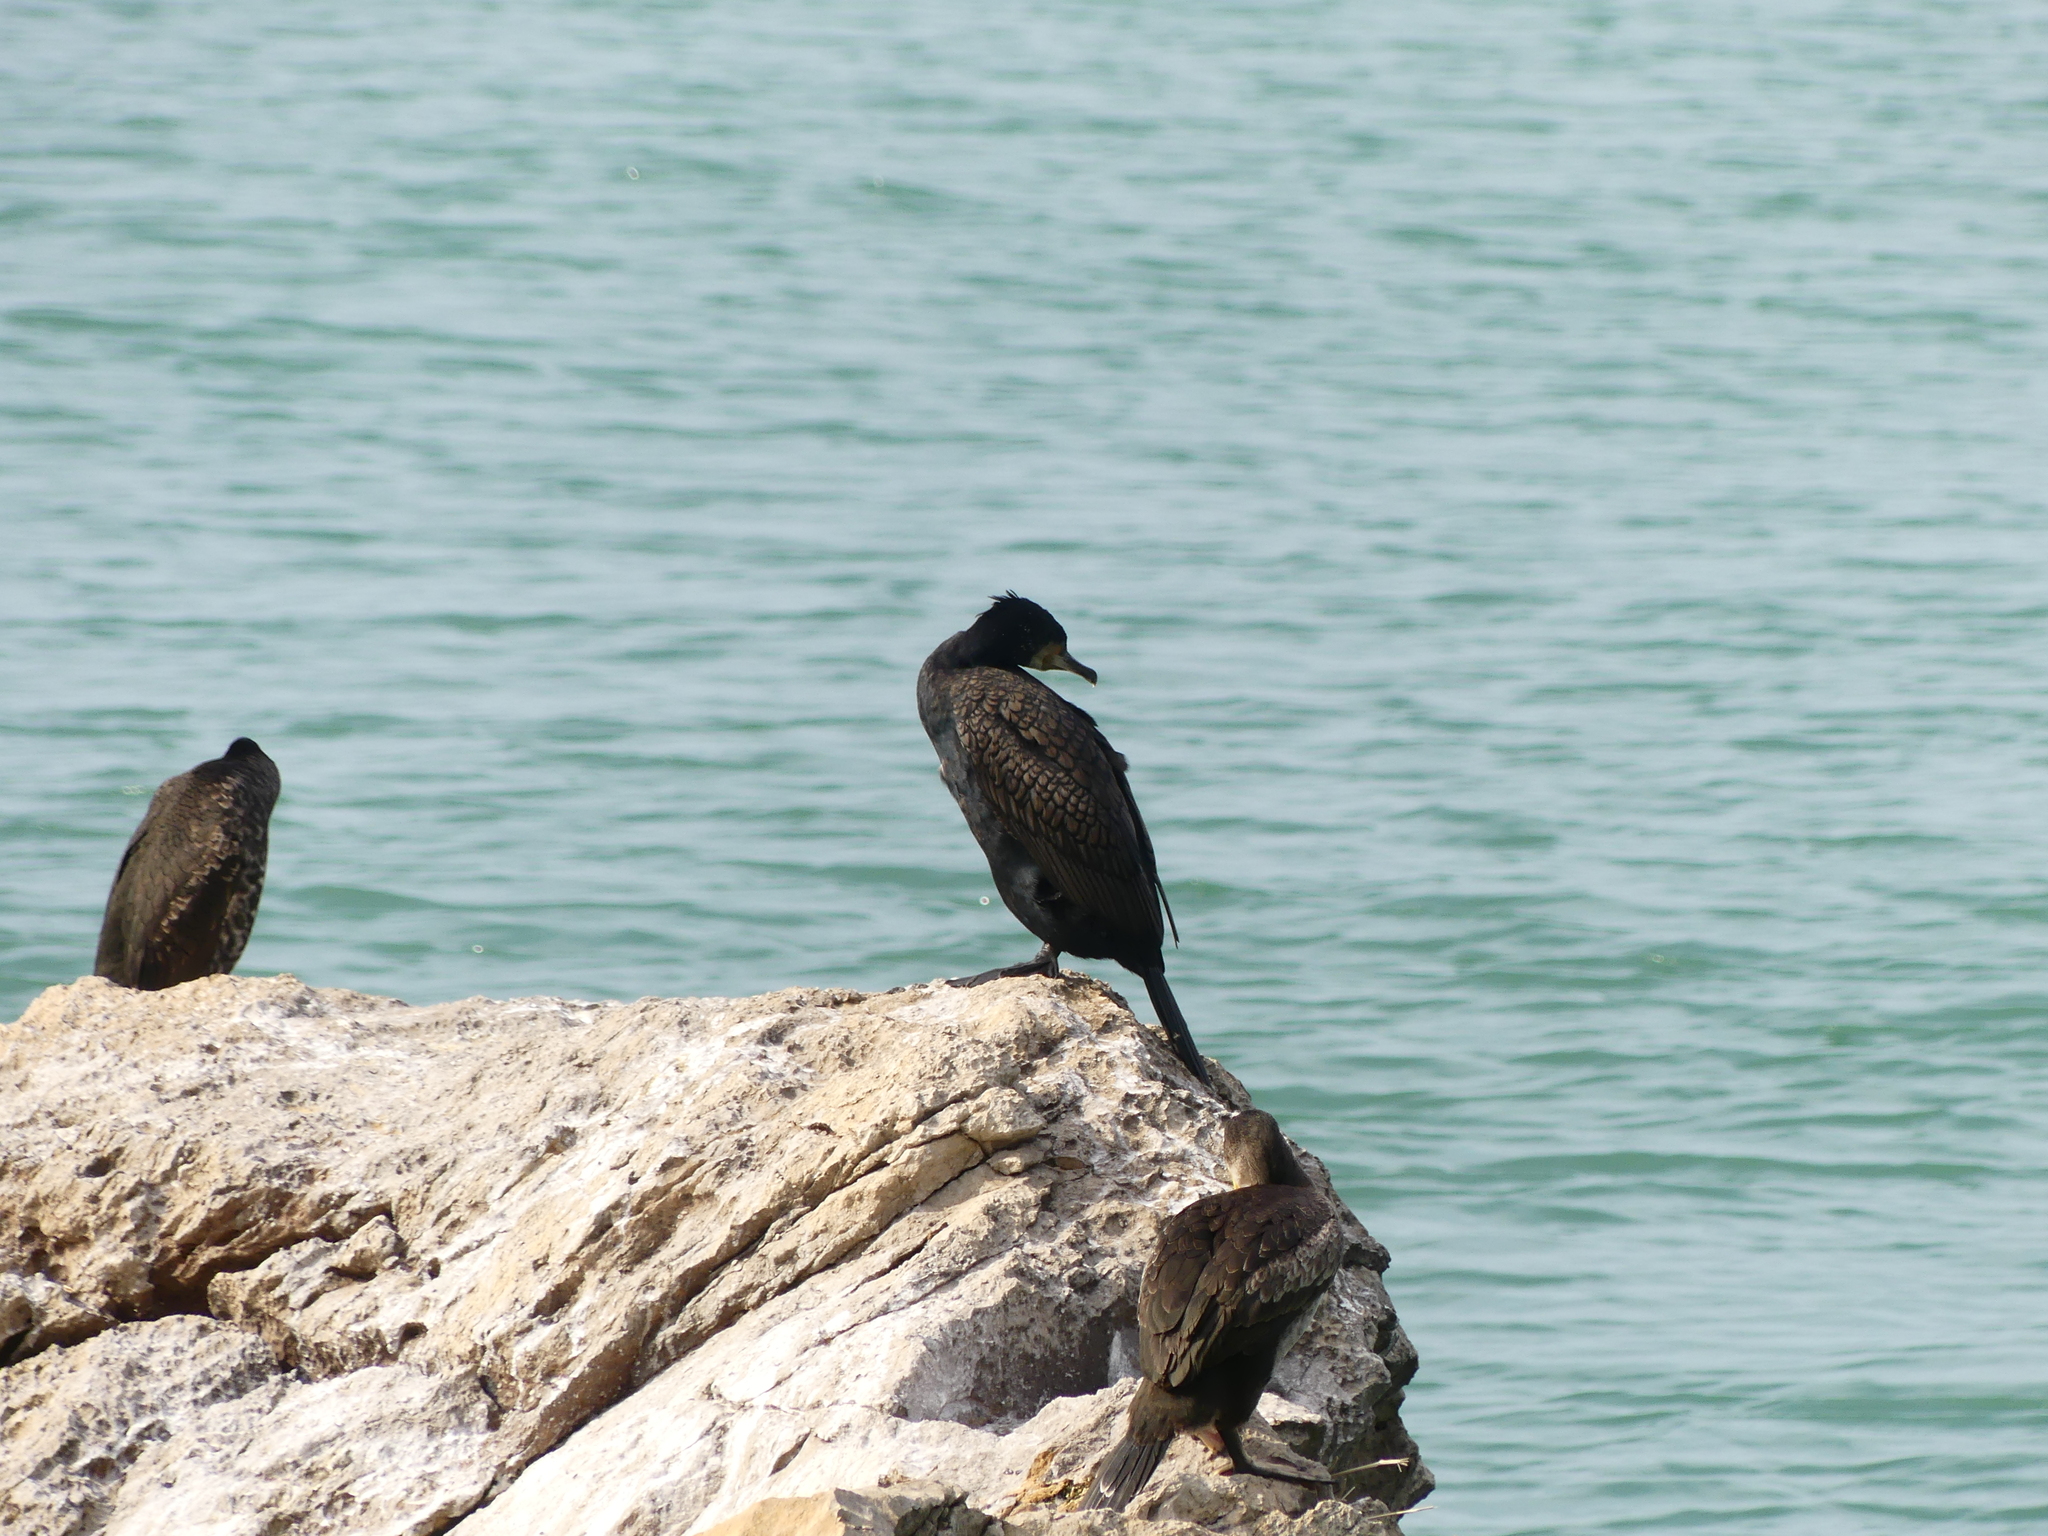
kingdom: Animalia
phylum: Chordata
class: Aves
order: Suliformes
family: Phalacrocoracidae
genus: Phalacrocorax
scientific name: Phalacrocorax carbo
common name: Great cormorant
